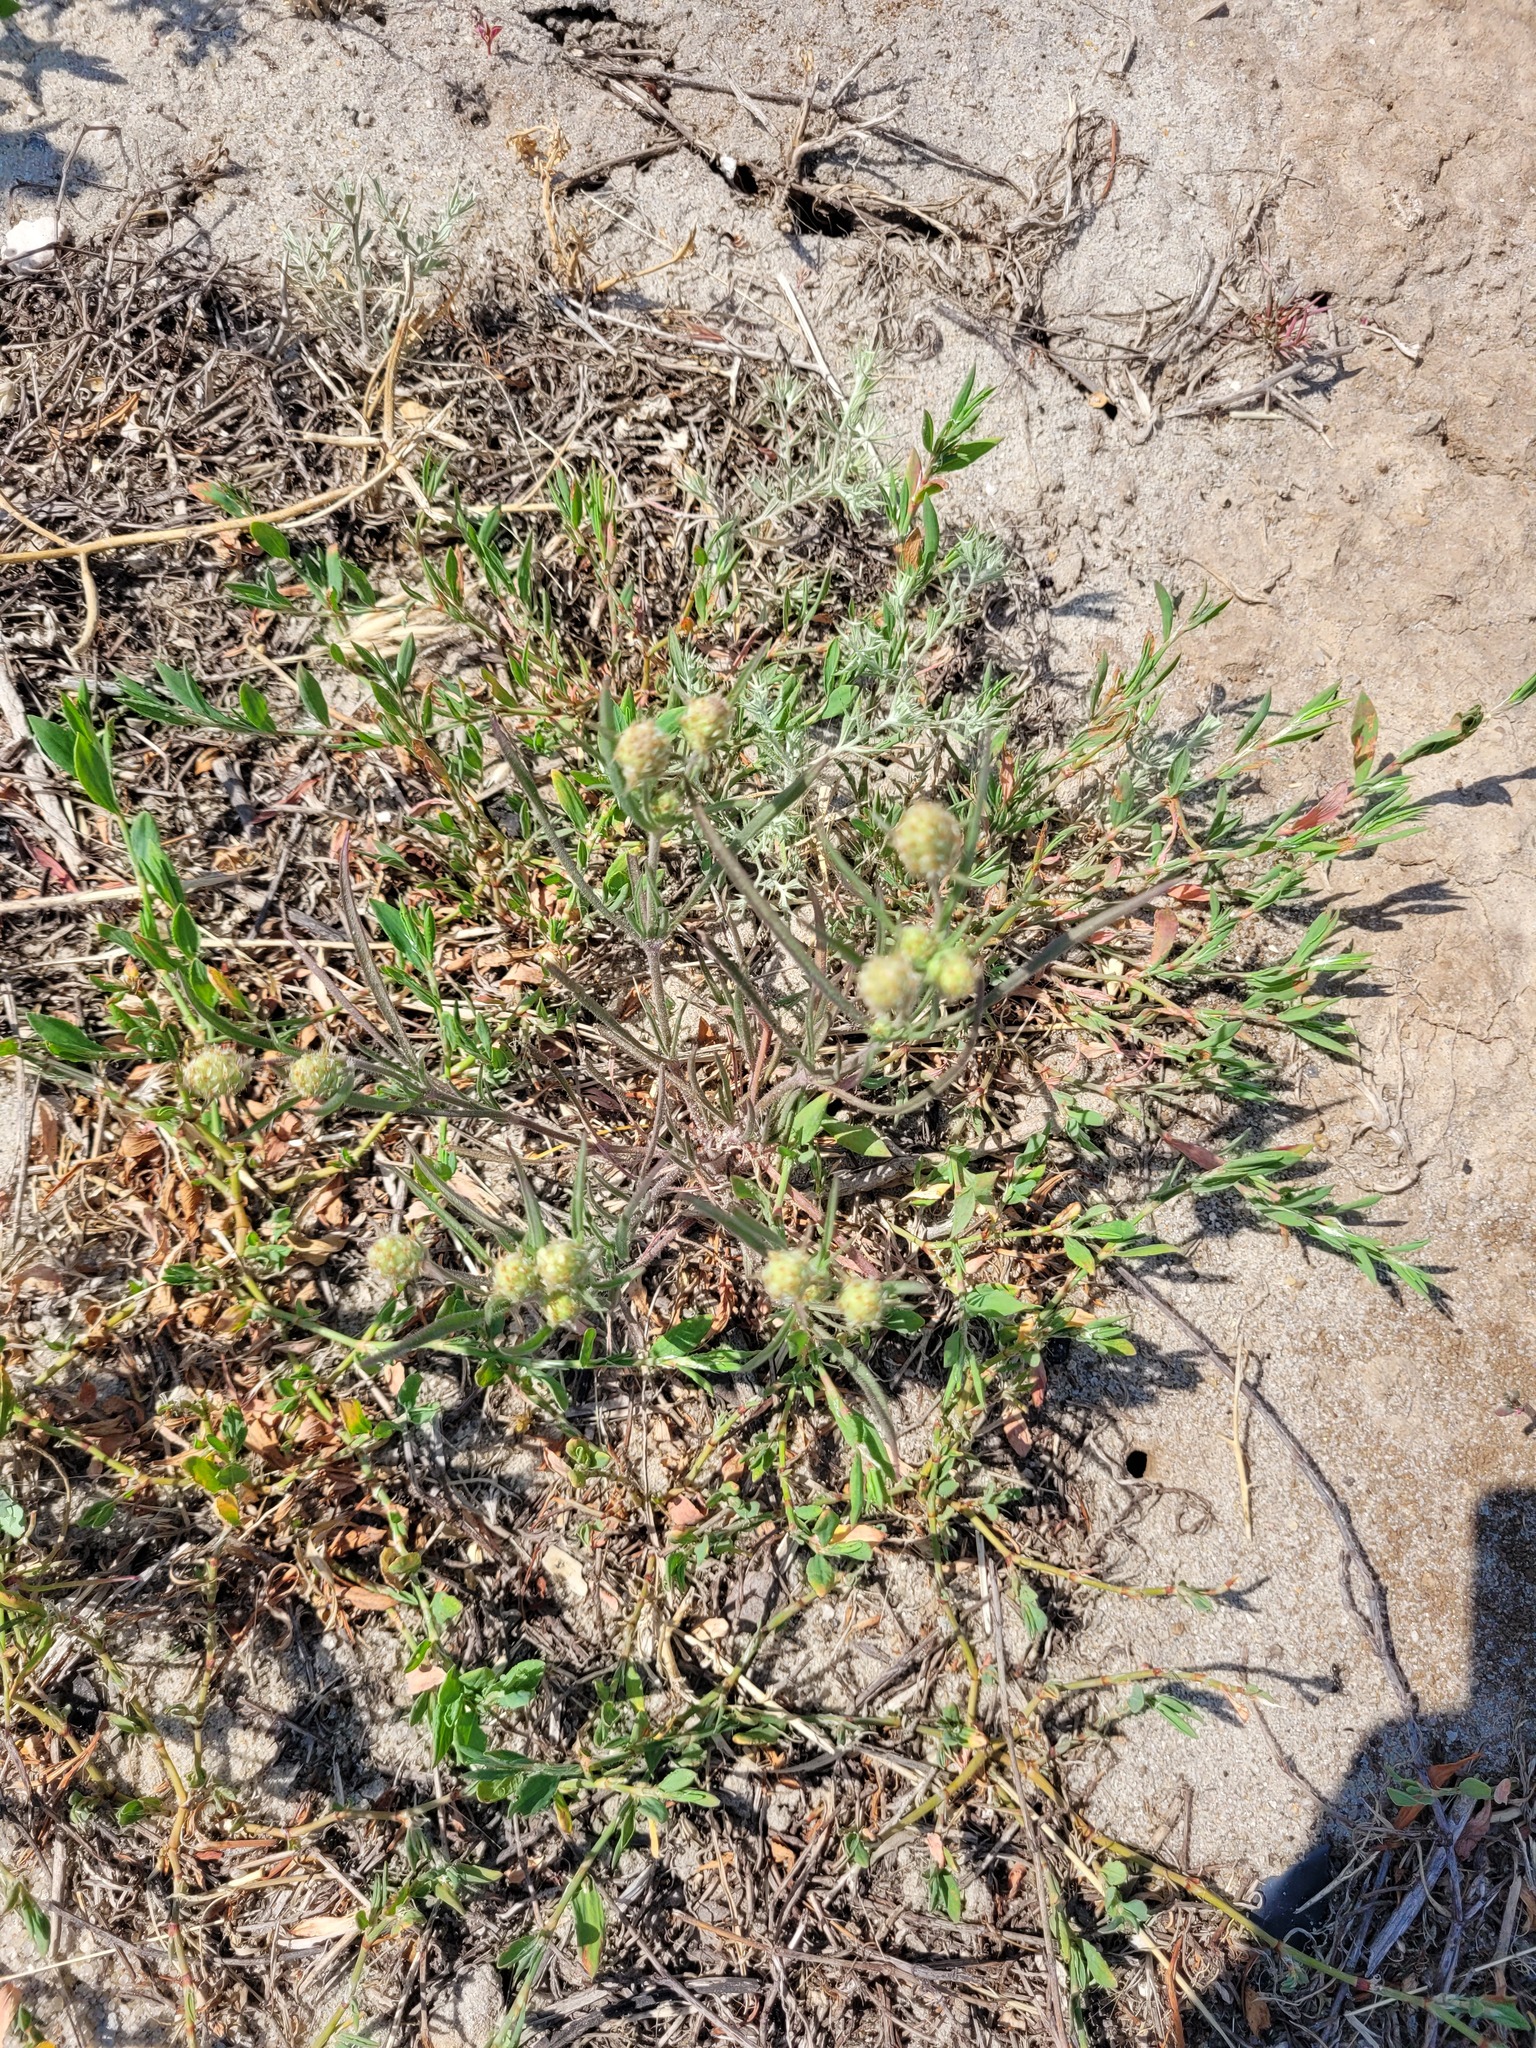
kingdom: Plantae
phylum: Tracheophyta
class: Magnoliopsida
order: Lamiales
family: Plantaginaceae
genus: Plantago
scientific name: Plantago arenaria
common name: Branched plantain
